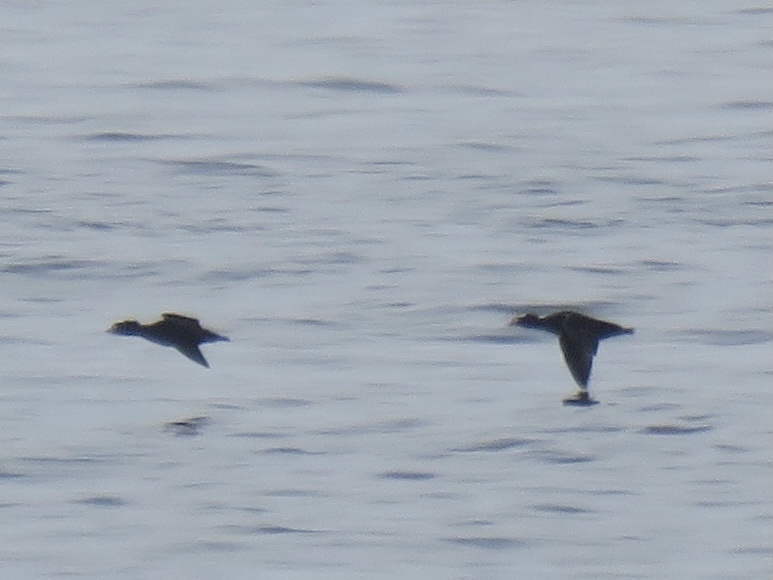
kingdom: Animalia
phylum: Chordata
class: Aves
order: Anseriformes
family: Anatidae
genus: Melanitta
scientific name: Melanitta perspicillata
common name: Surf scoter
